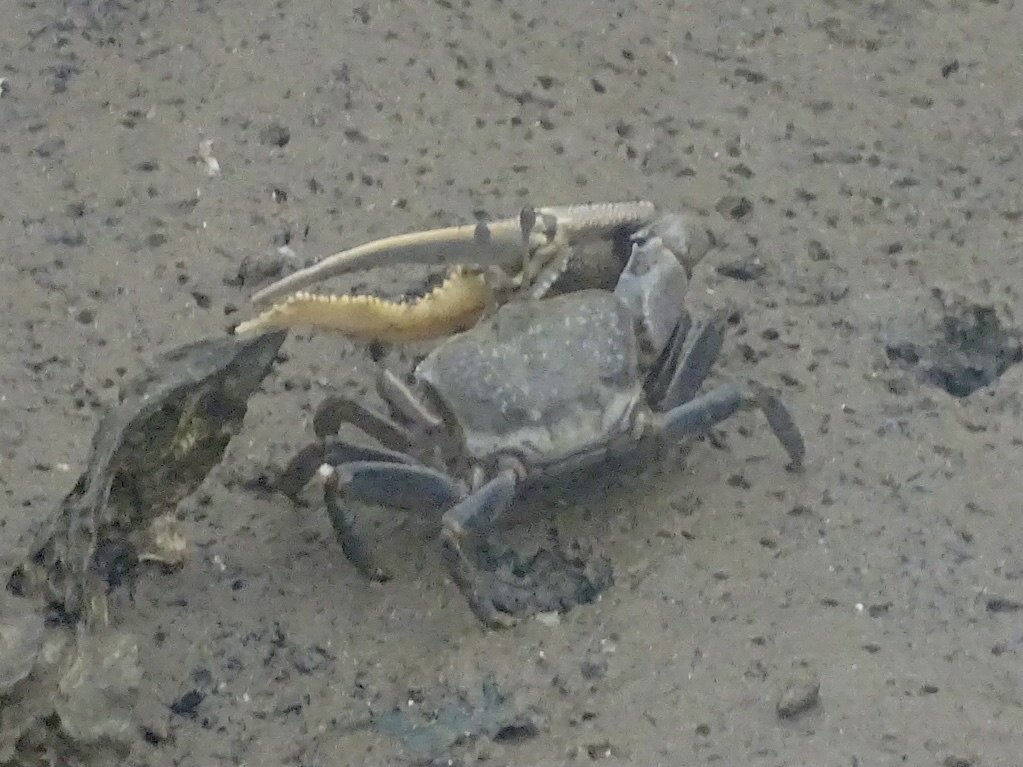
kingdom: Animalia
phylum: Arthropoda
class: Malacostraca
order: Decapoda
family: Ocypodidae
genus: Gelasimus
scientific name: Gelasimus borealis
